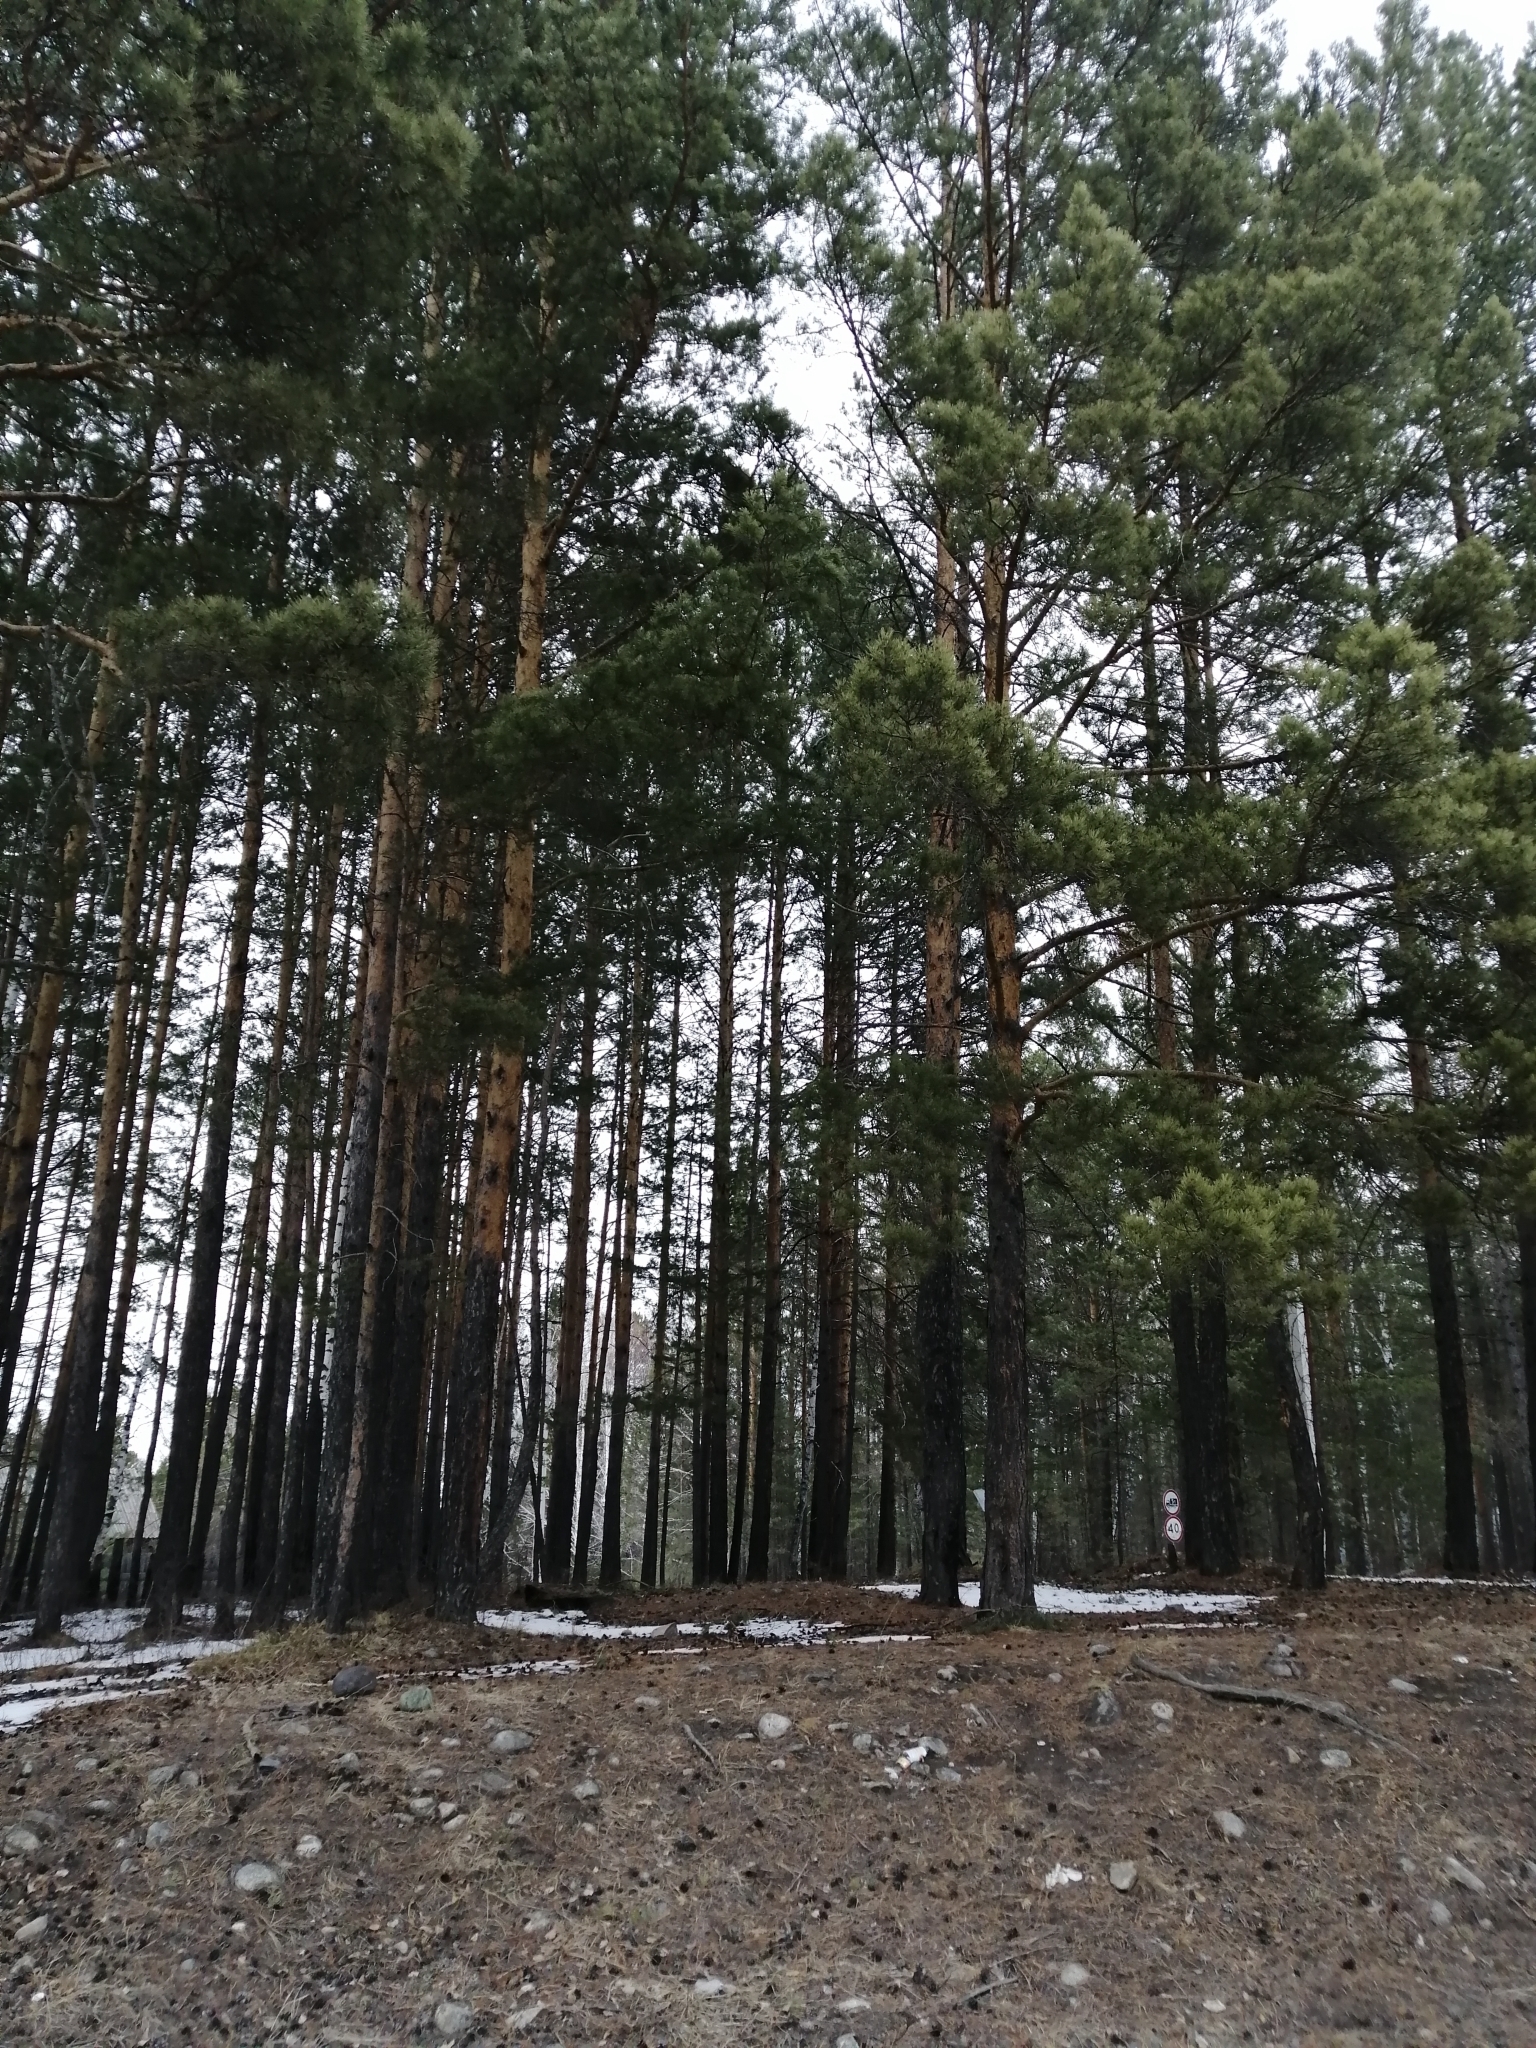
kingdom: Plantae
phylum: Tracheophyta
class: Pinopsida
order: Pinales
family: Pinaceae
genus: Pinus
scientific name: Pinus sylvestris
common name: Scots pine
